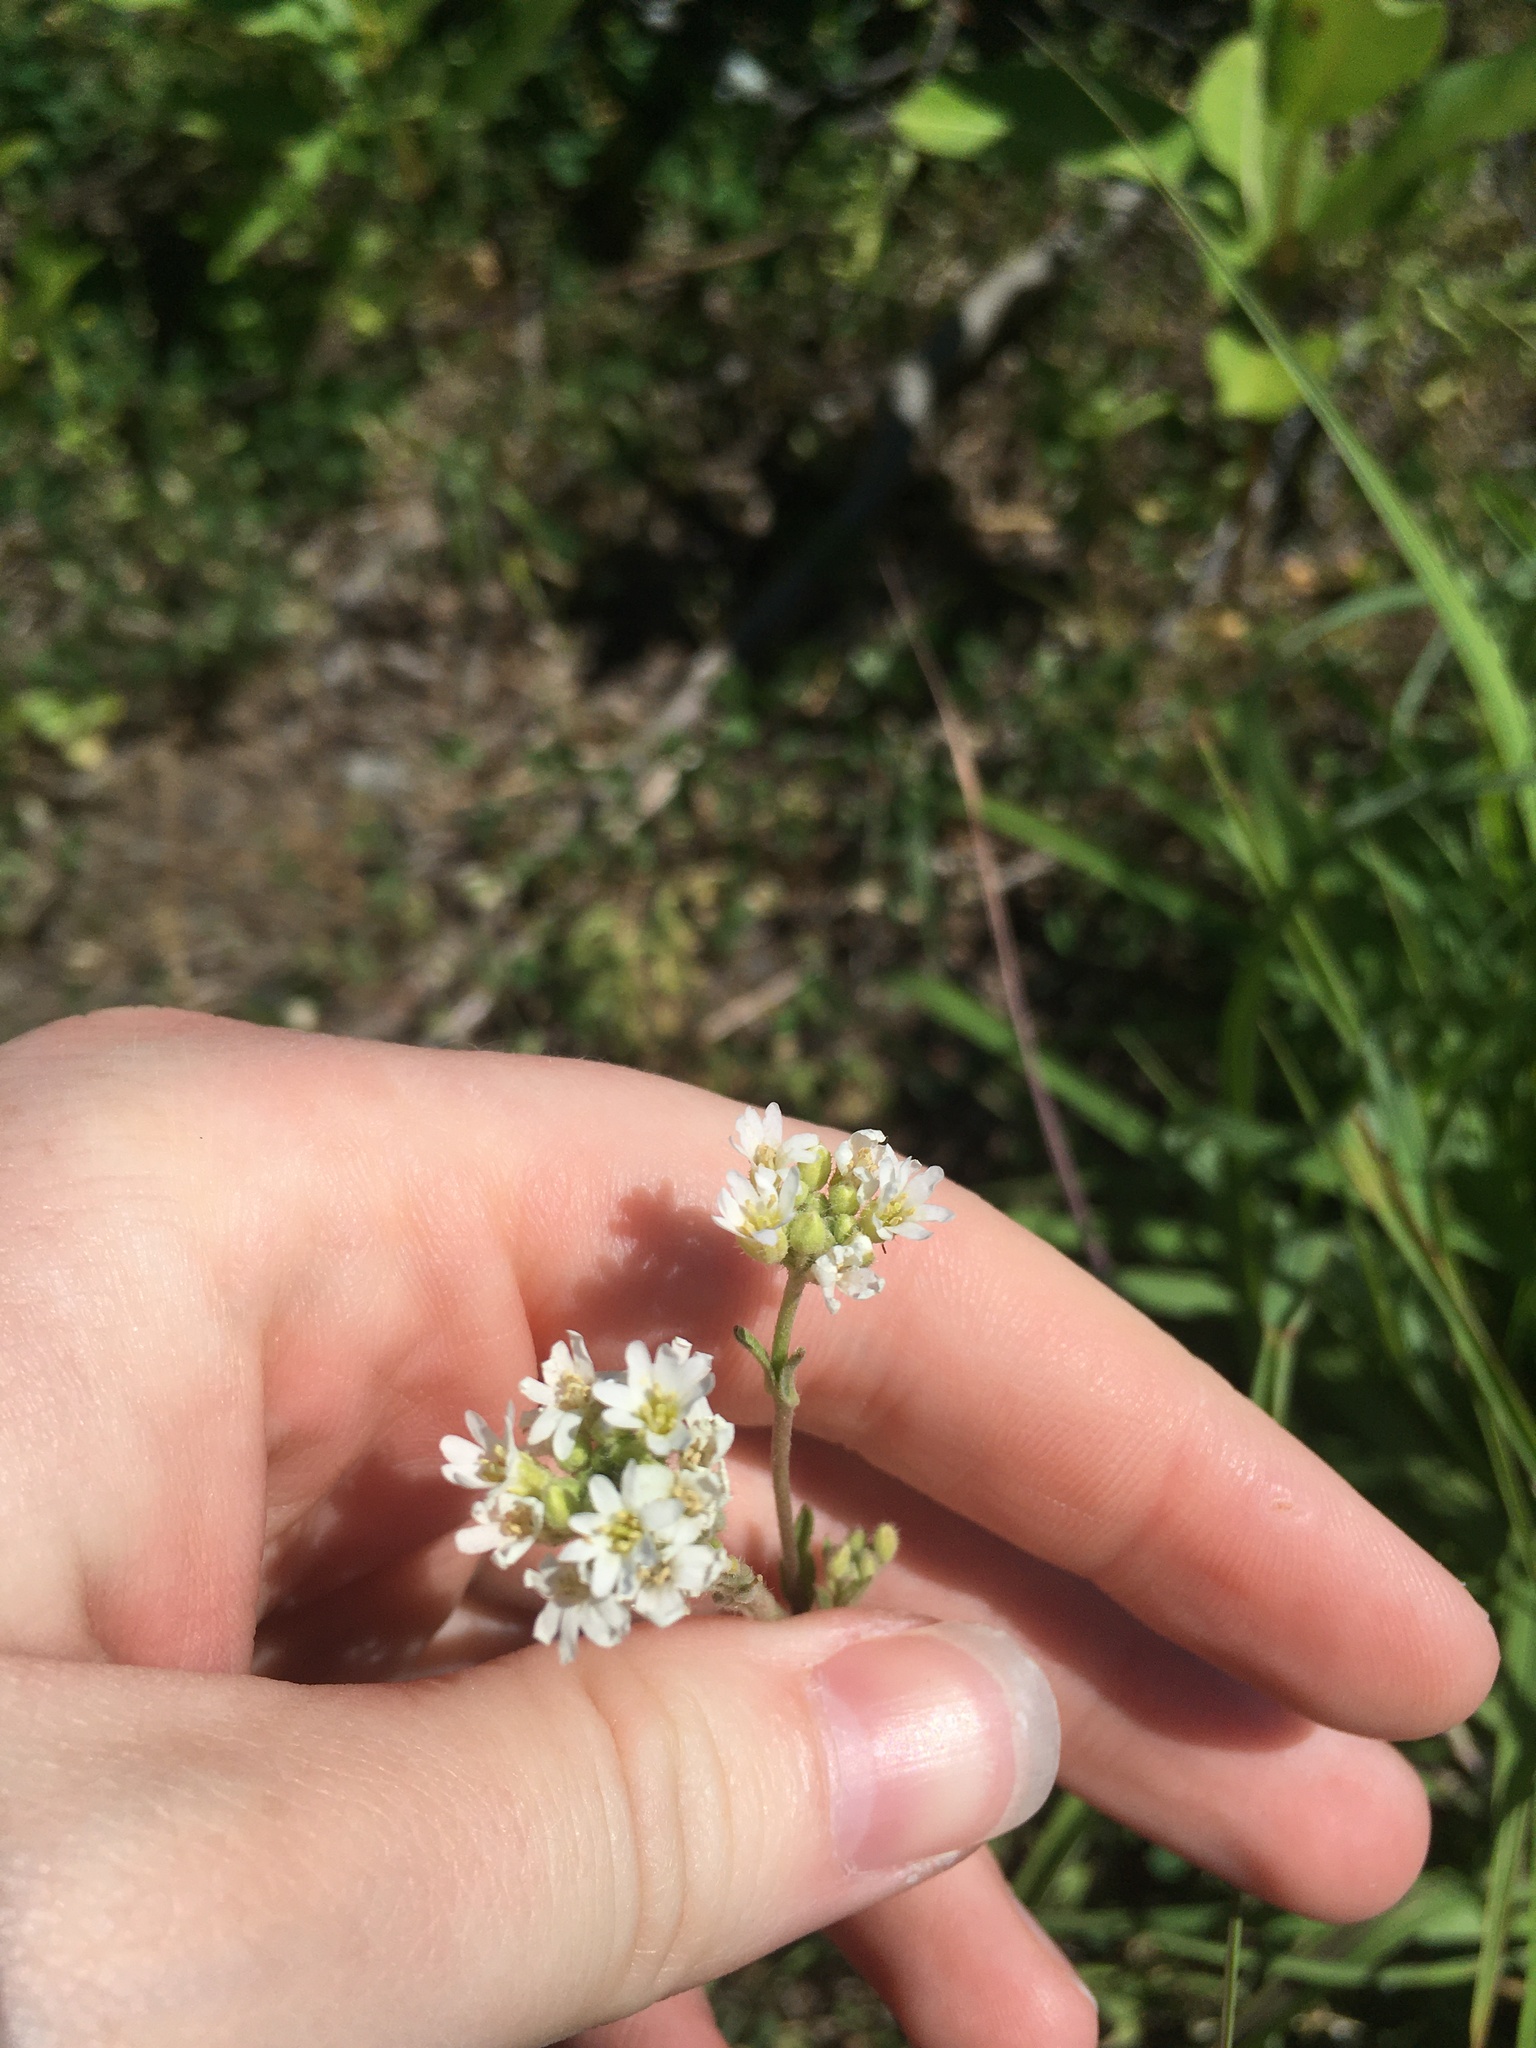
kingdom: Plantae
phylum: Tracheophyta
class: Magnoliopsida
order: Brassicales
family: Brassicaceae
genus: Berteroa
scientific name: Berteroa incana
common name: Hoary alison
